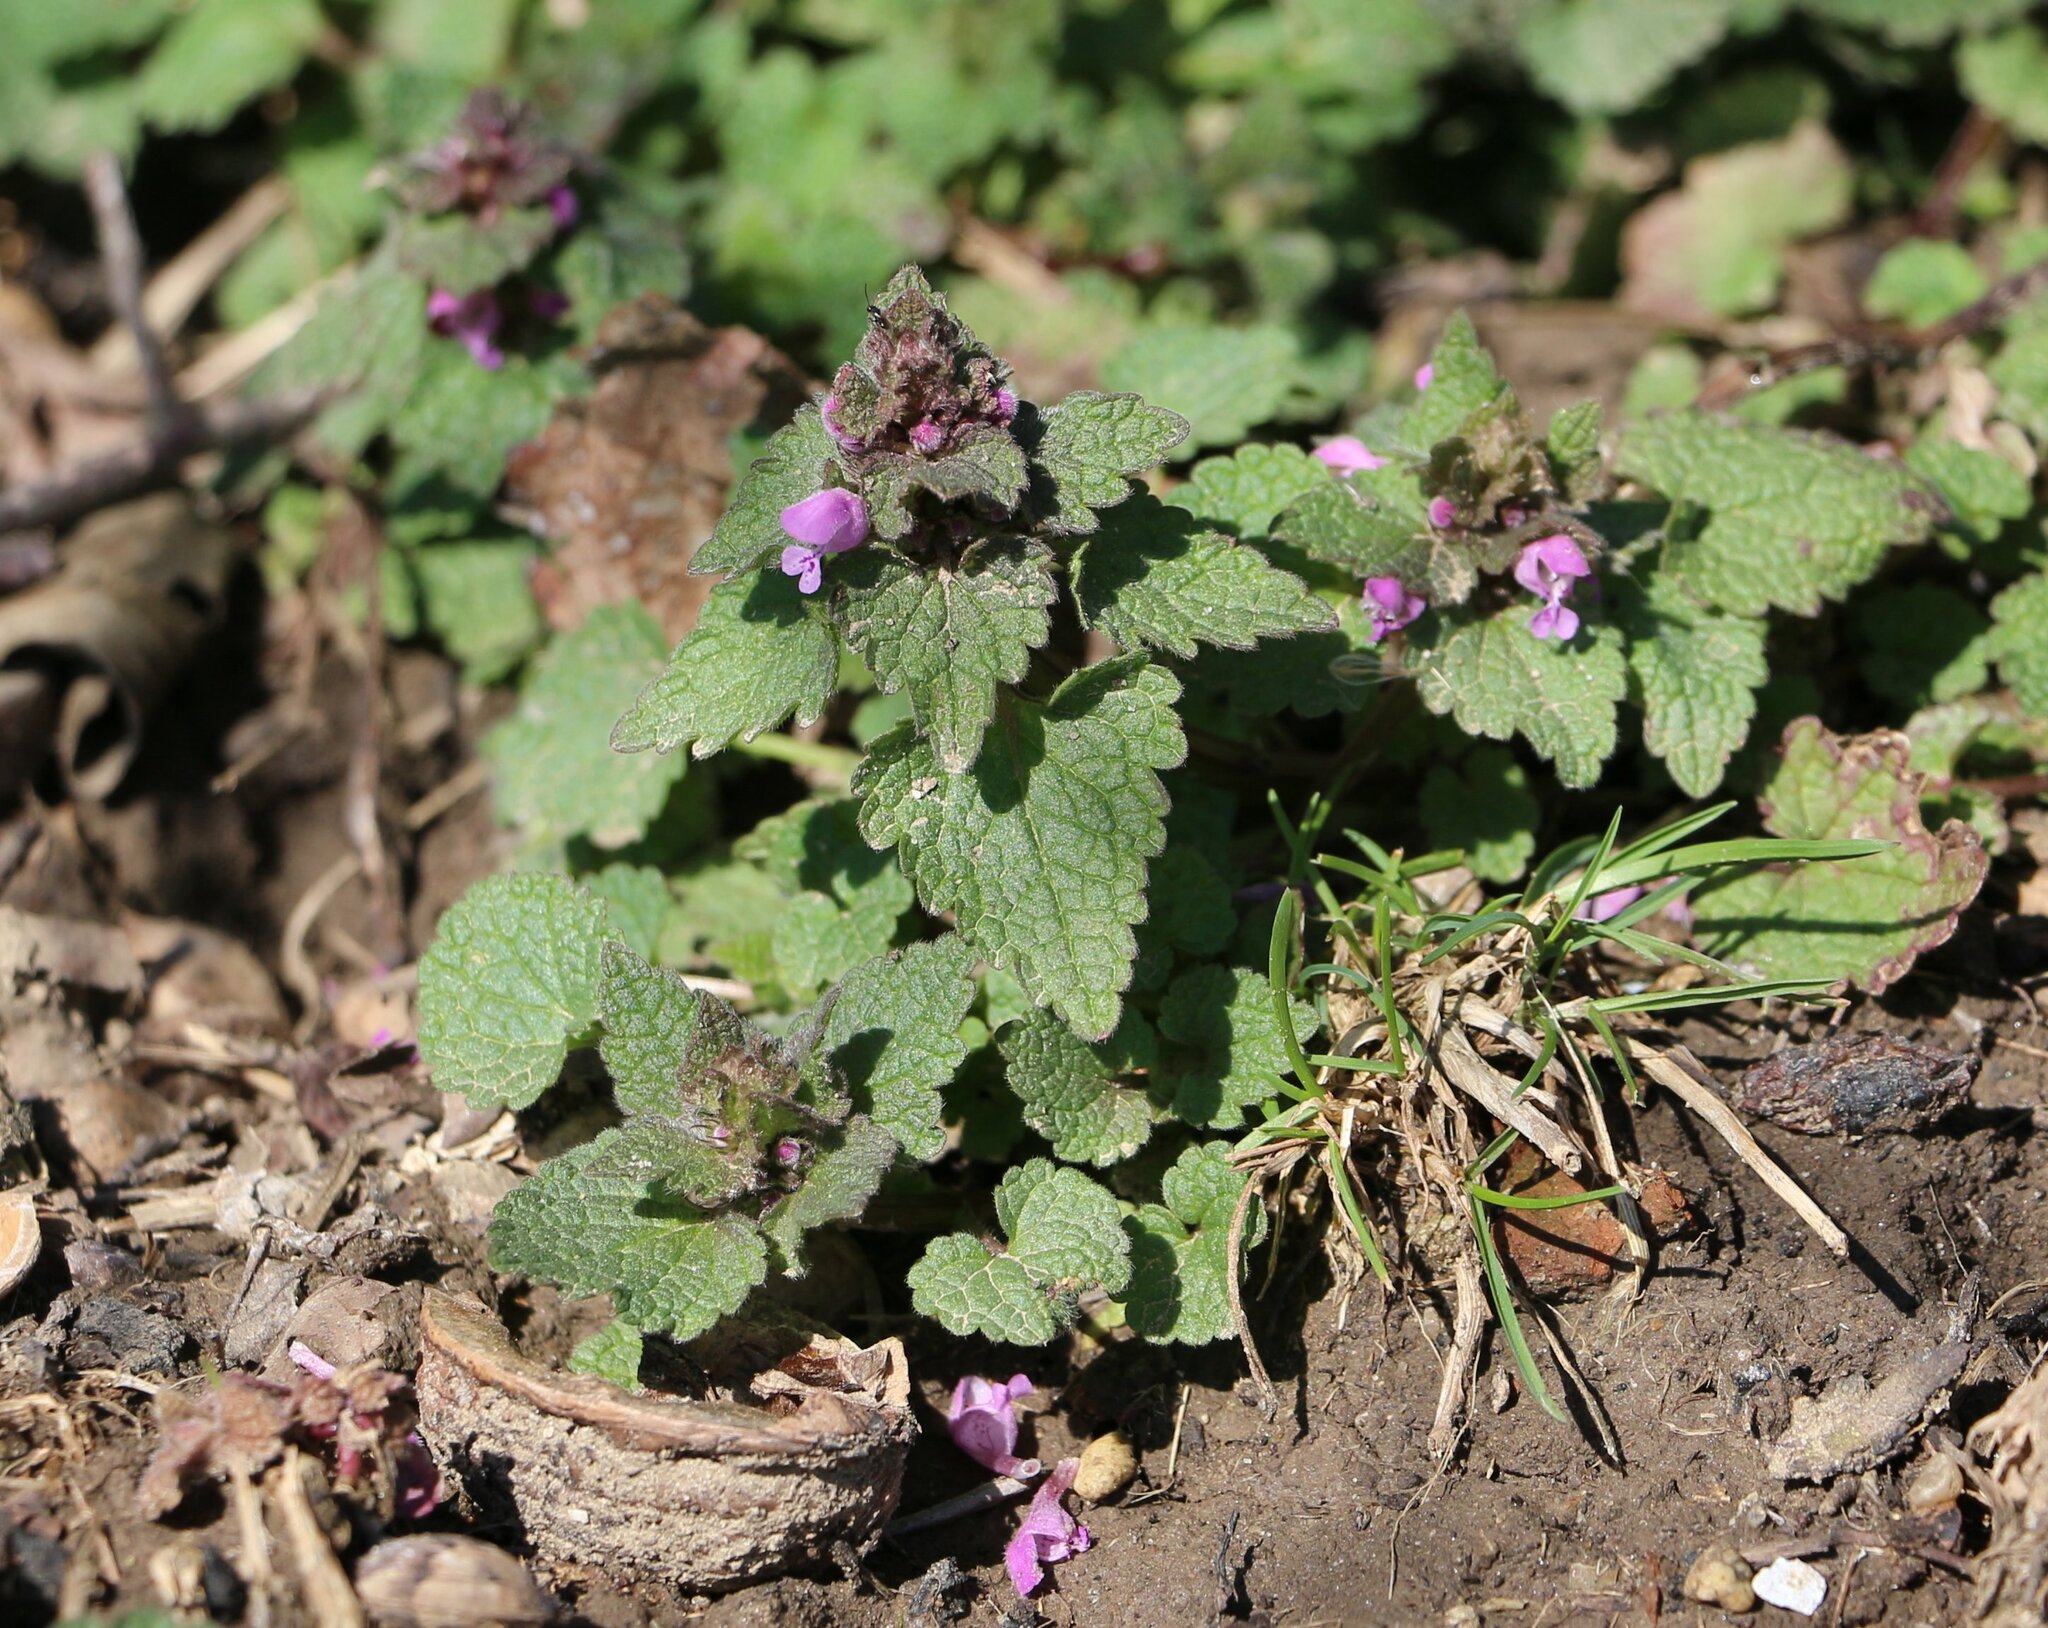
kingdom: Plantae
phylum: Tracheophyta
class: Magnoliopsida
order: Lamiales
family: Lamiaceae
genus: Lamium
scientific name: Lamium purpureum
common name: Red dead-nettle
